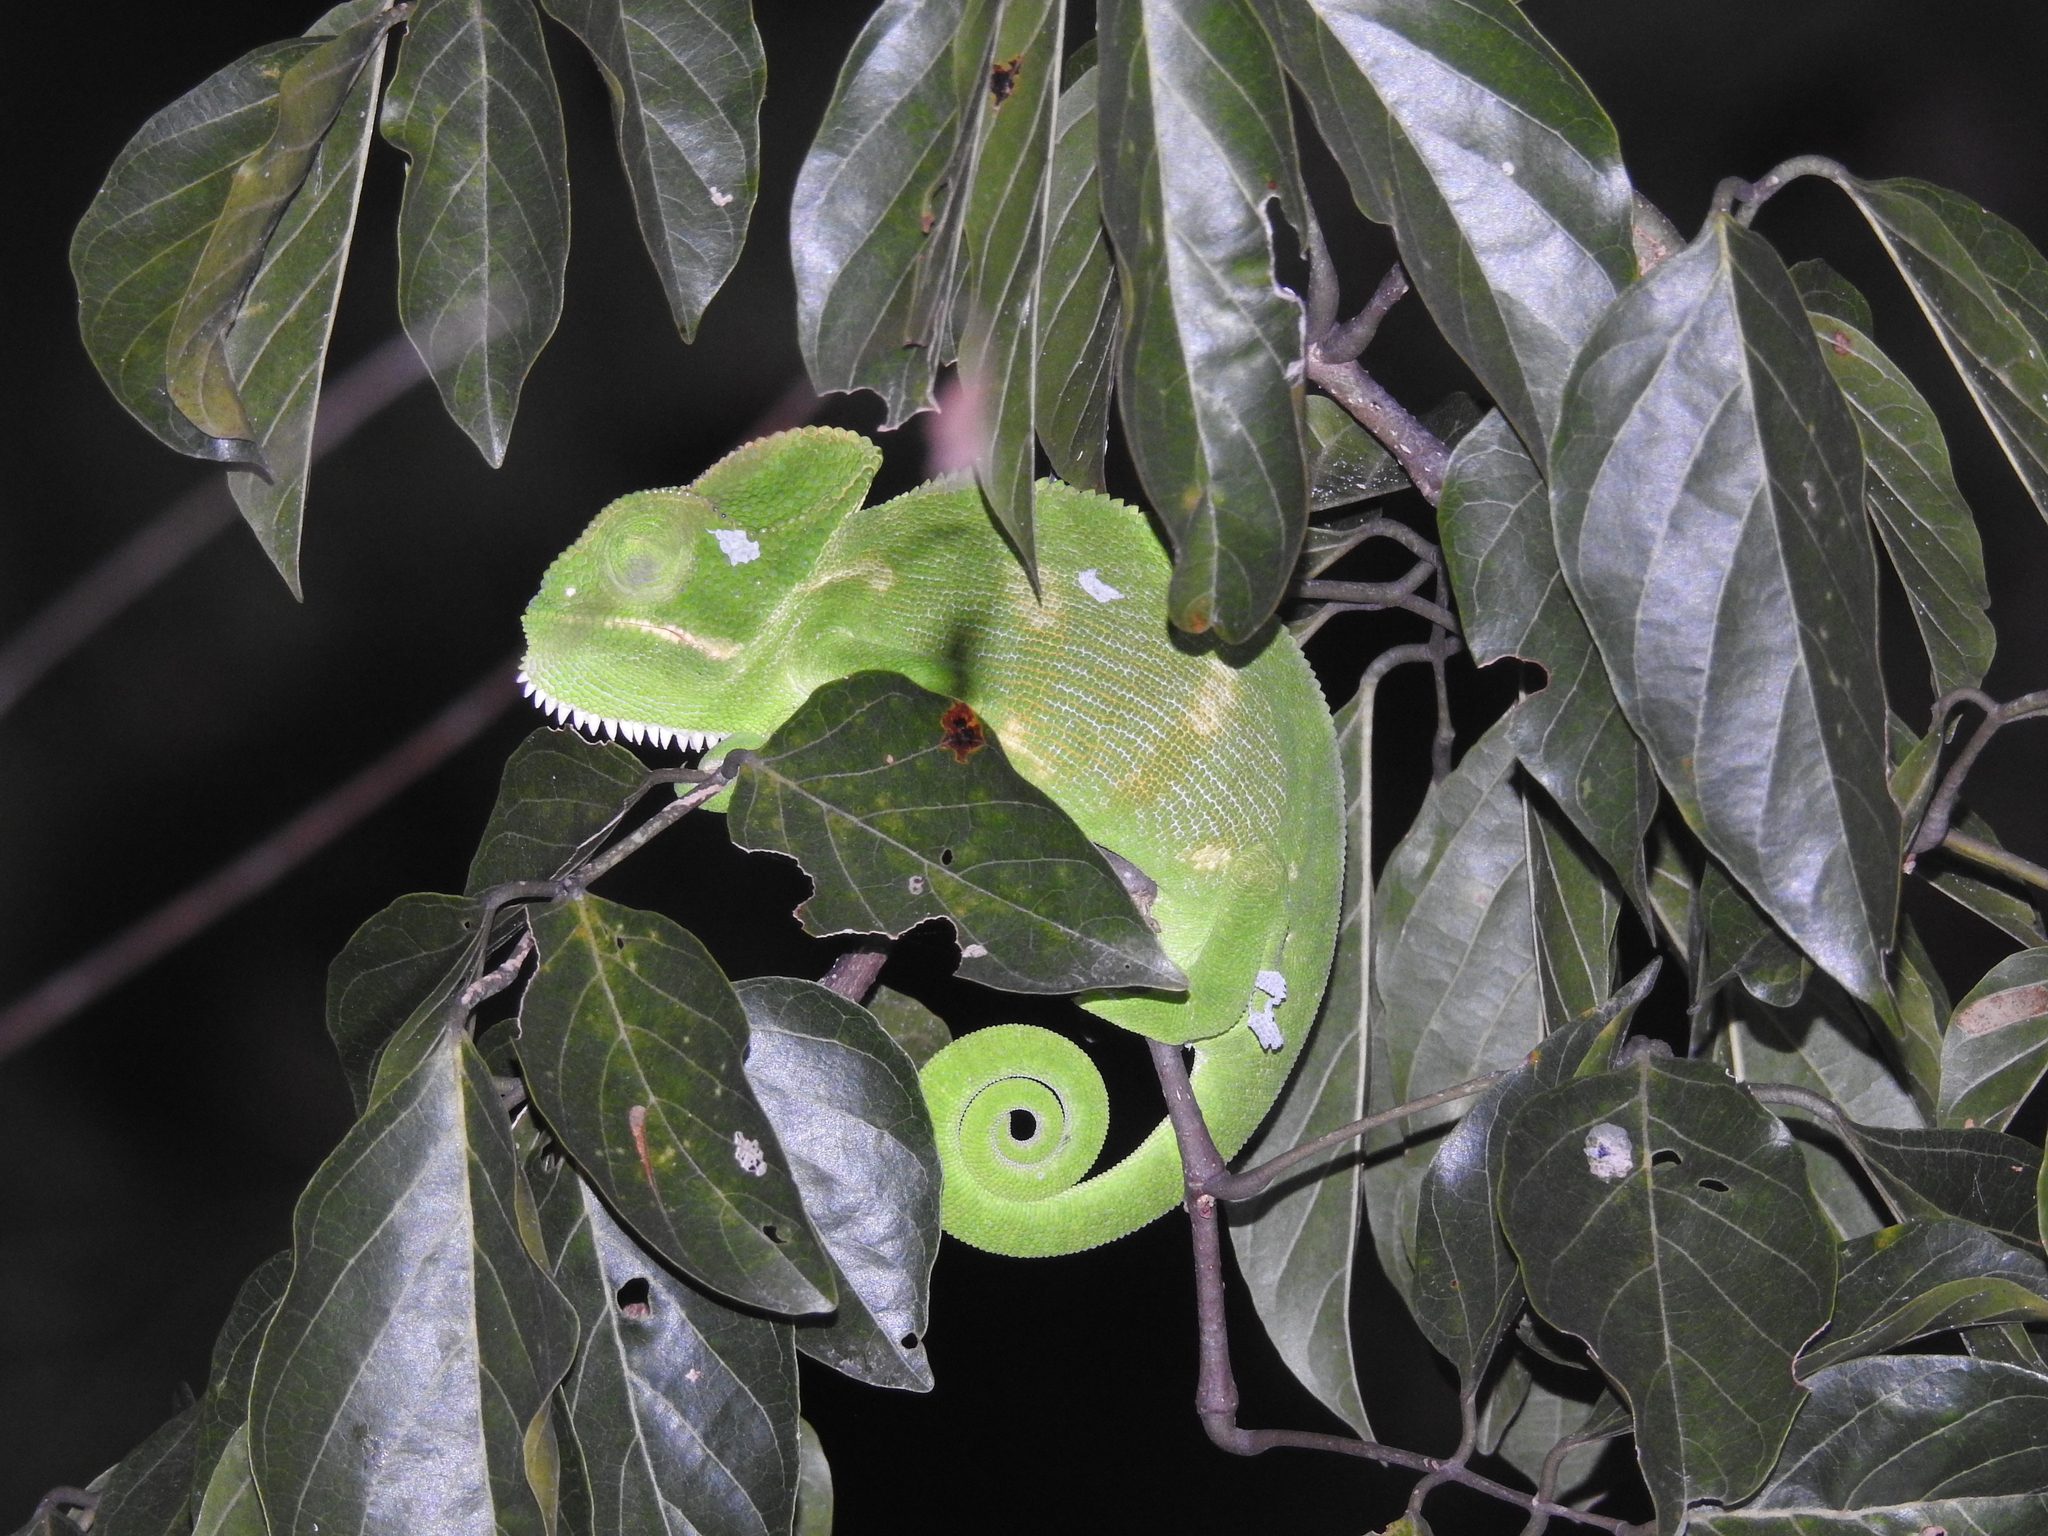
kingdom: Animalia
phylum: Chordata
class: Squamata
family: Chamaeleonidae
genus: Chamaeleo
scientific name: Chamaeleo zeylanicus
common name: Indian chameleon
